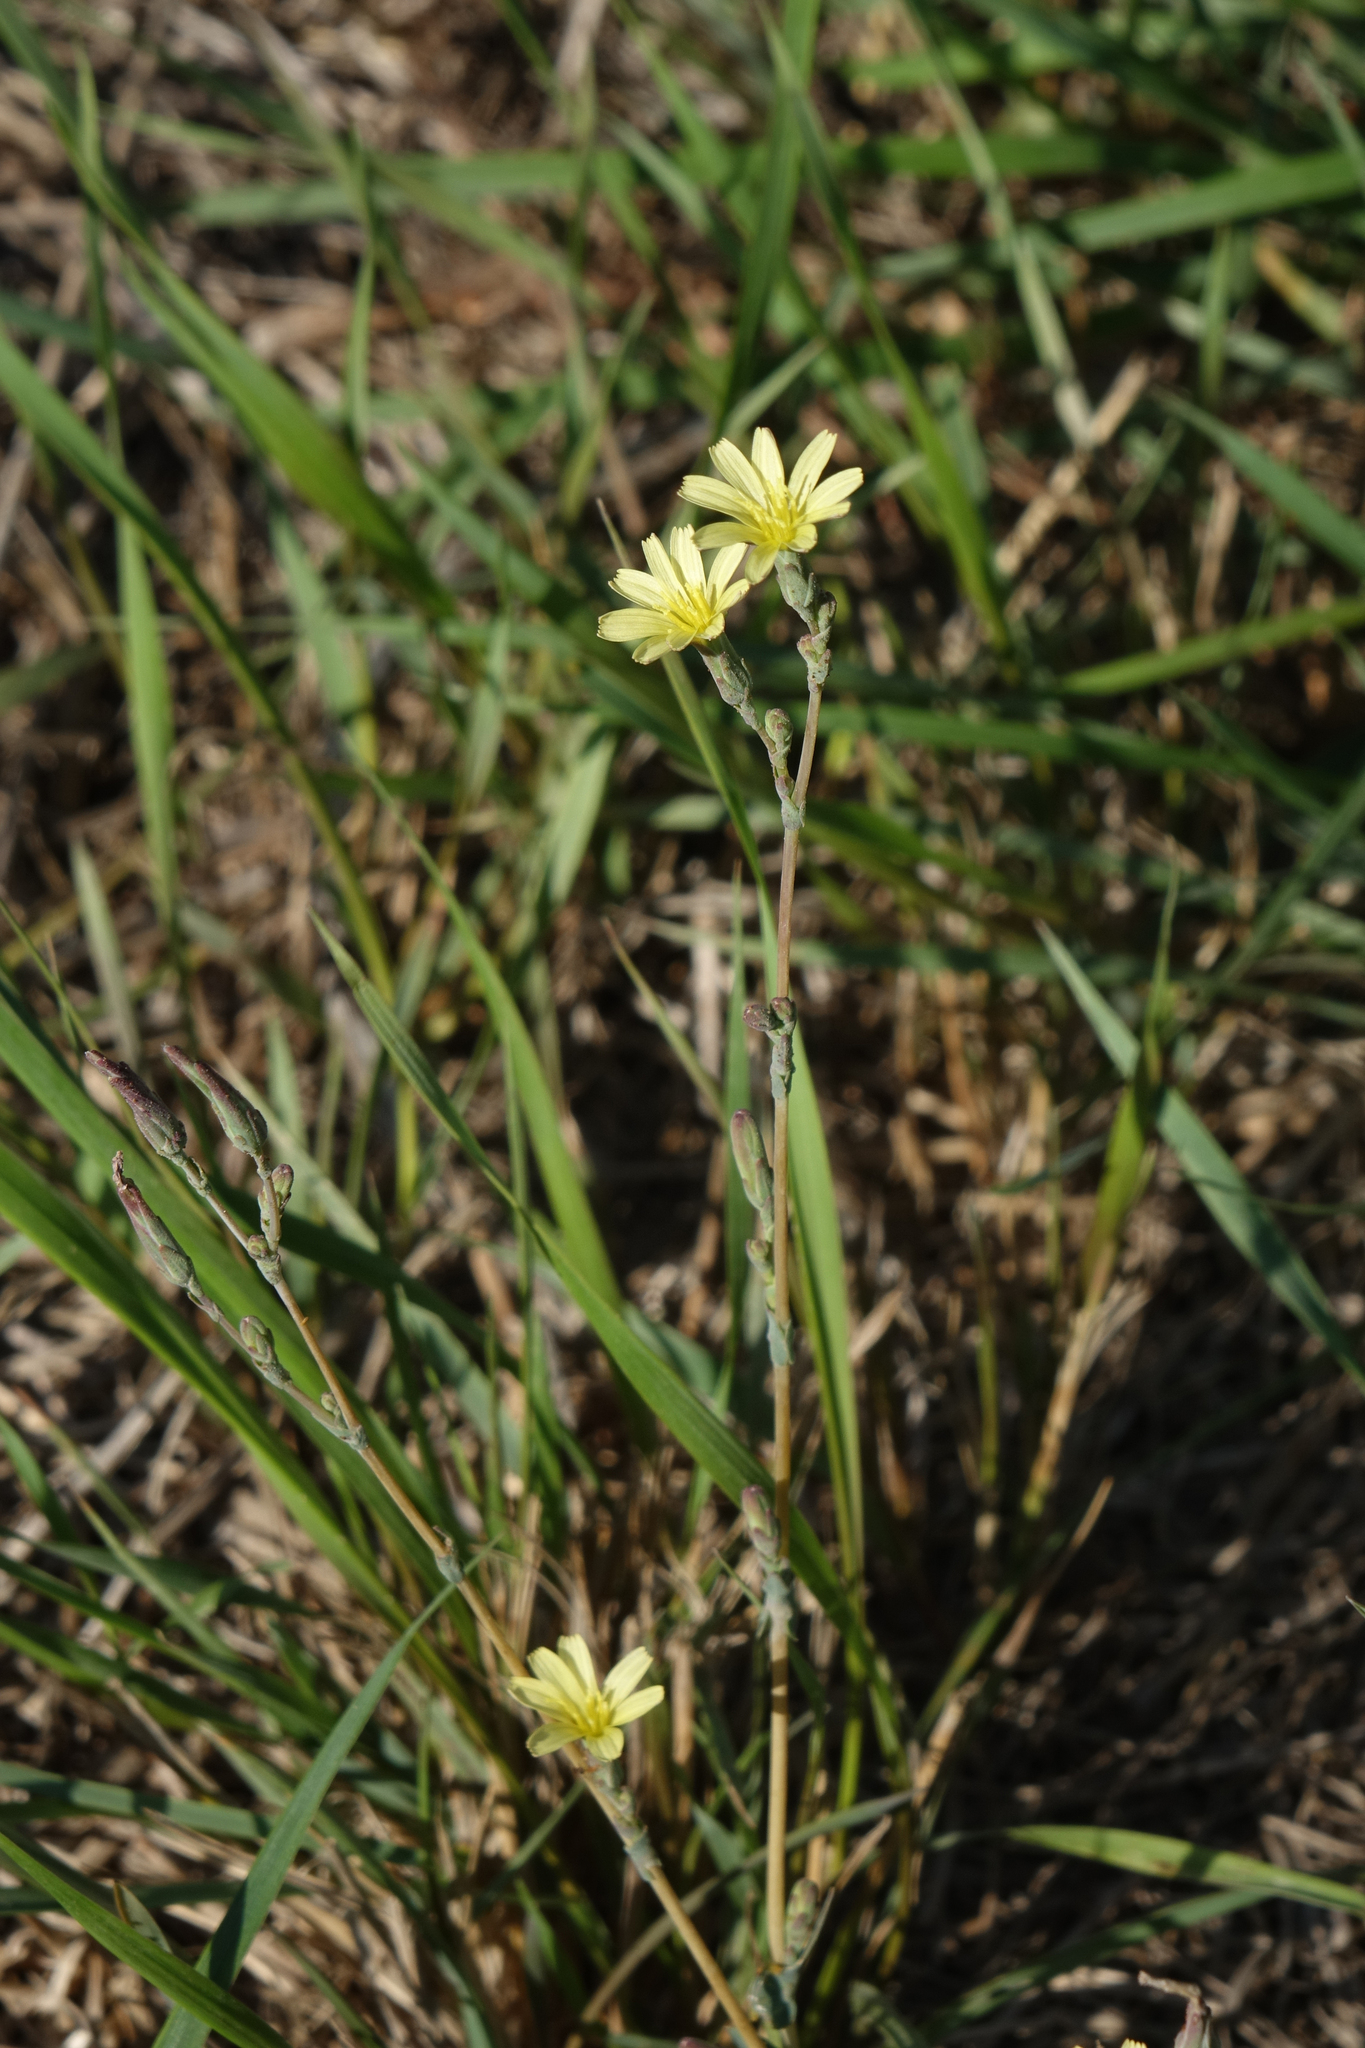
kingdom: Plantae
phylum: Tracheophyta
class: Magnoliopsida
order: Asterales
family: Asteraceae
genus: Lactuca
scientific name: Lactuca serriola
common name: Prickly lettuce
